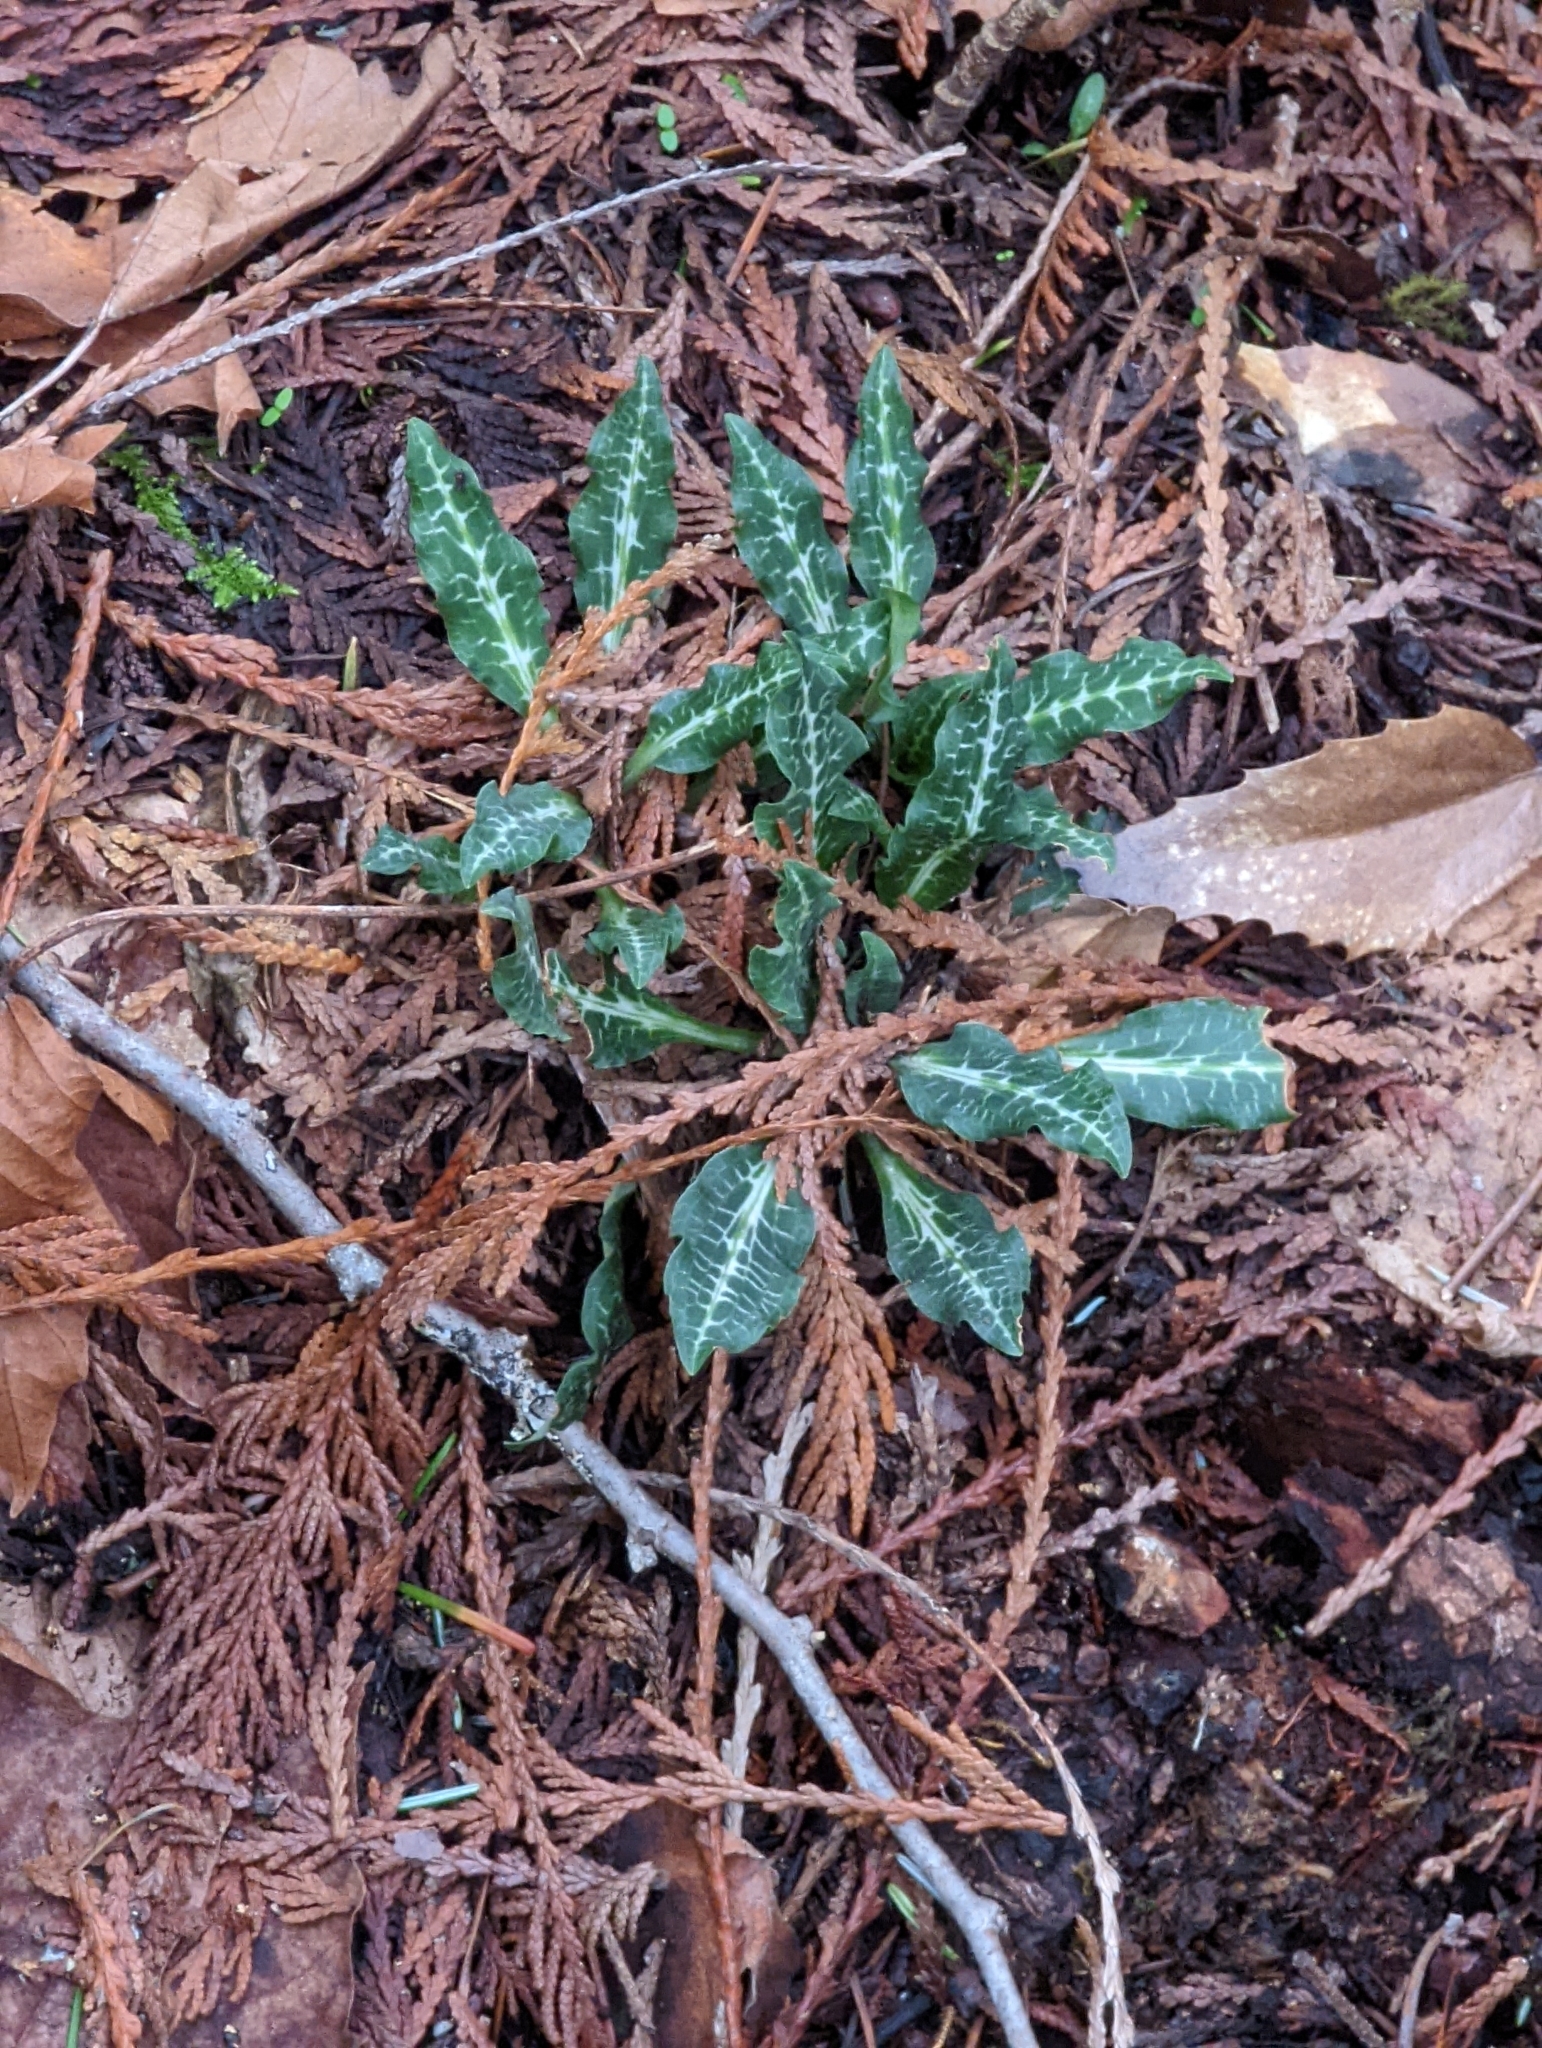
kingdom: Plantae
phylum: Tracheophyta
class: Liliopsida
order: Asparagales
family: Orchidaceae
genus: Goodyera
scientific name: Goodyera oblongifolia
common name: Giant rattlesnake-plantain
